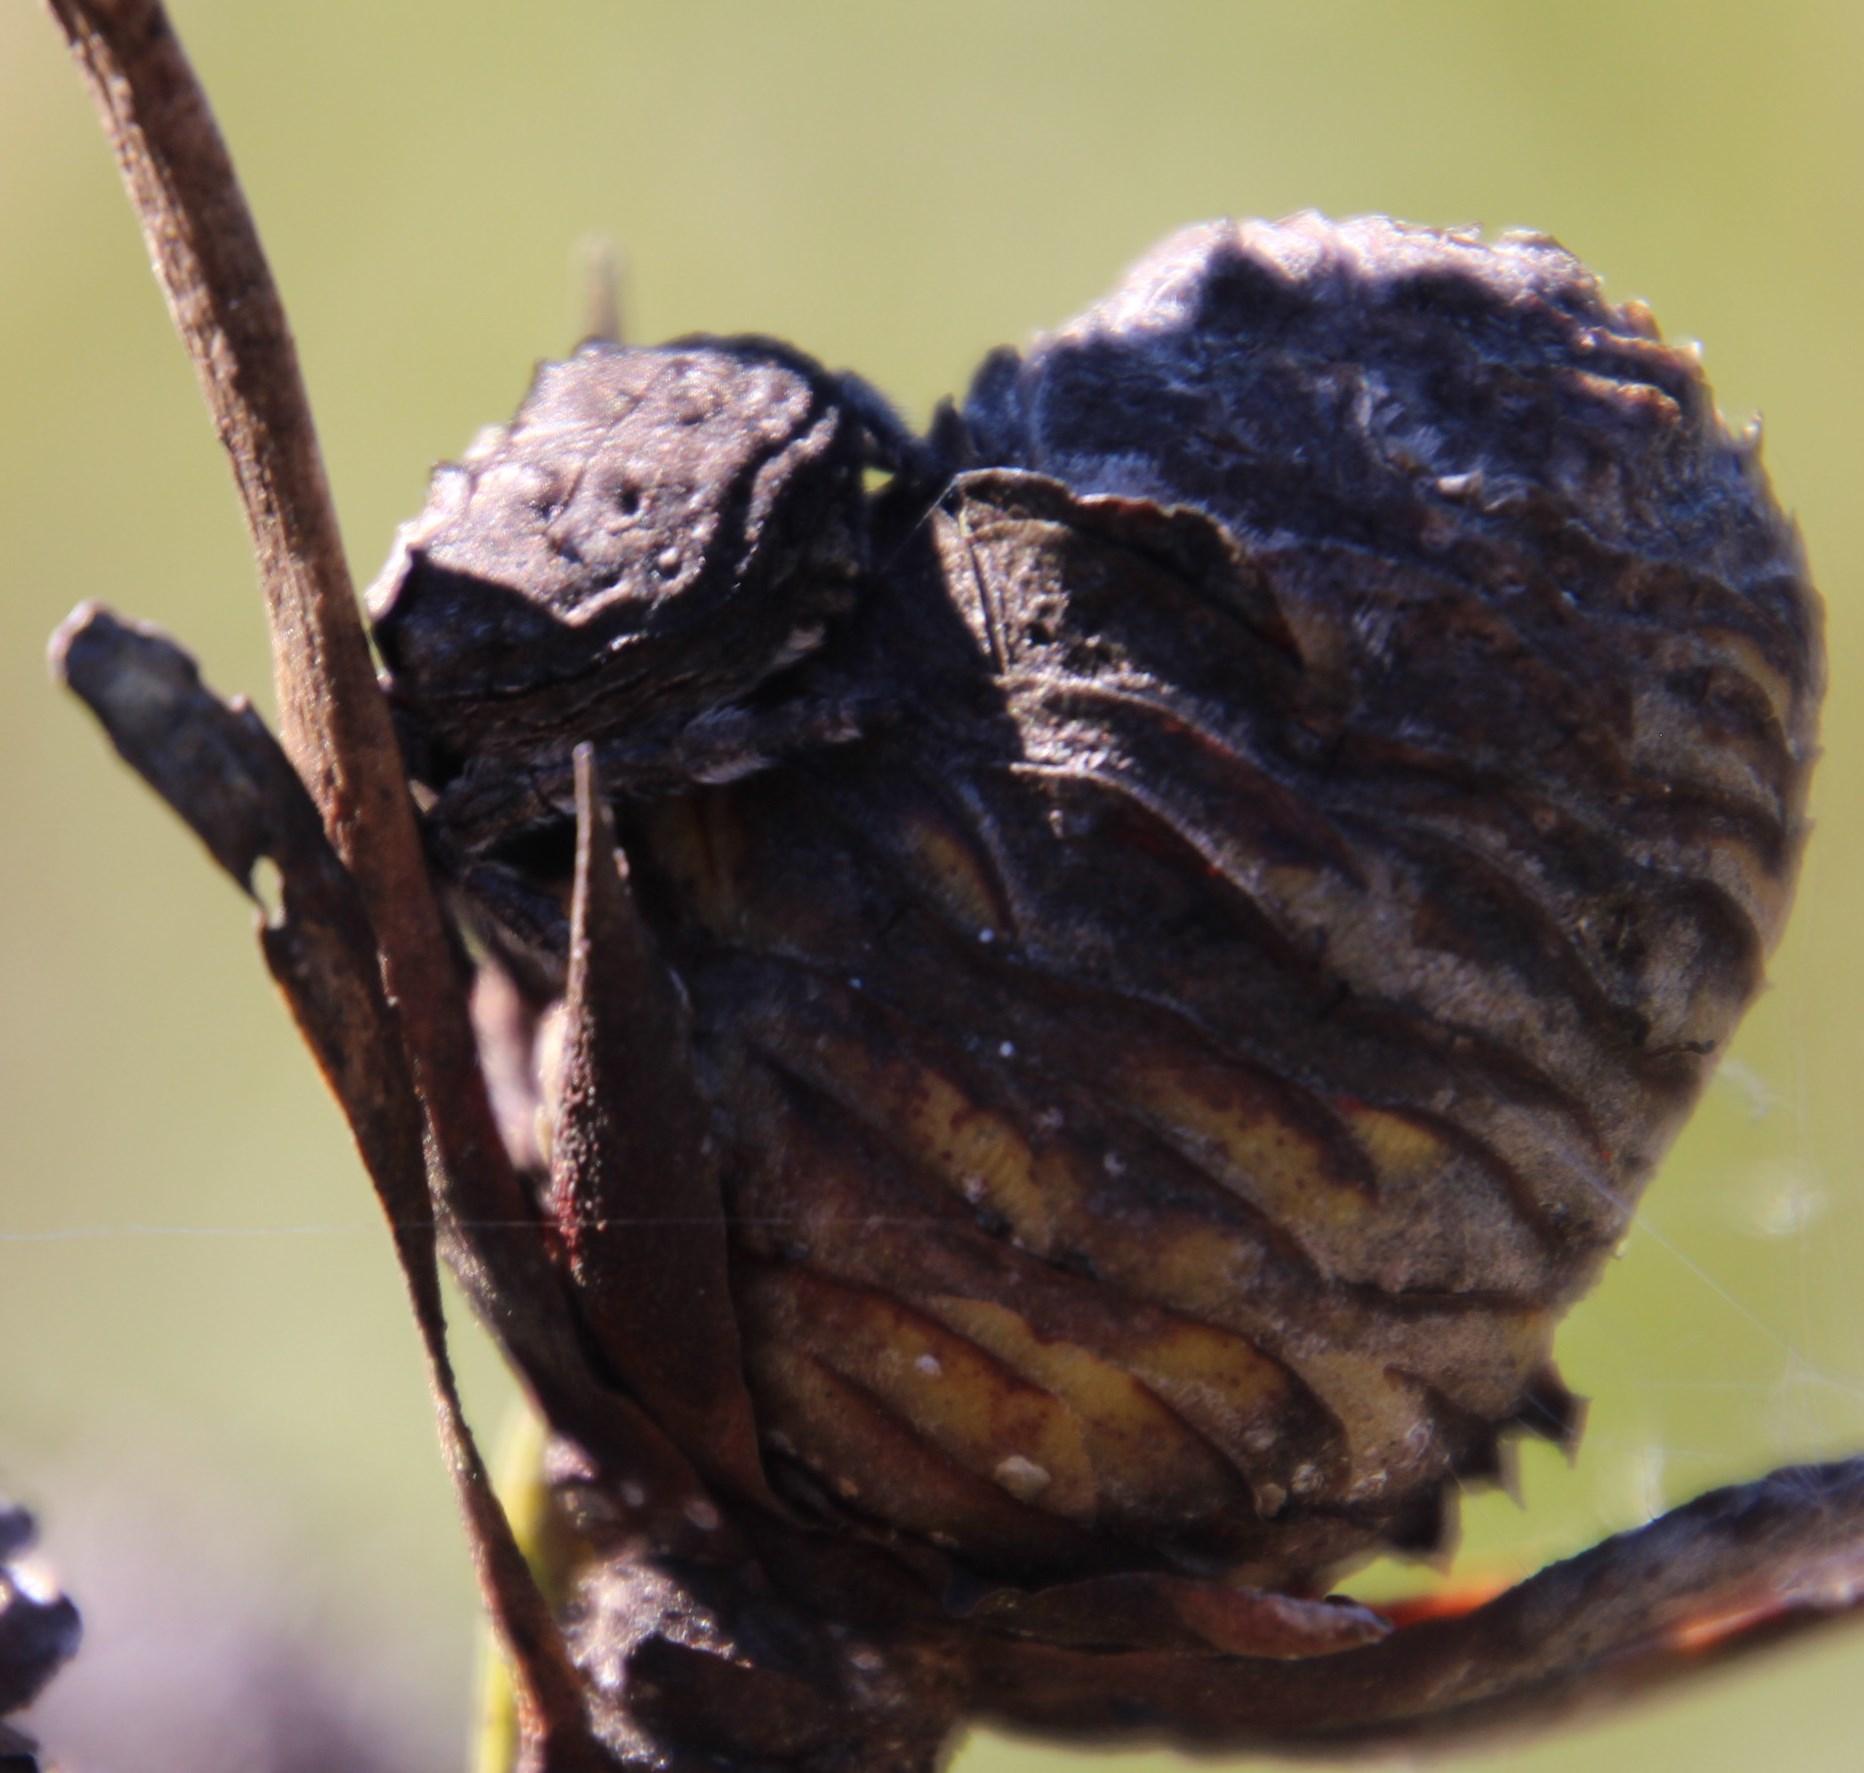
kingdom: Animalia
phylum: Arthropoda
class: Arachnida
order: Araneae
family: Araneidae
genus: Caerostris
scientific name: Caerostris sexcuspidata
